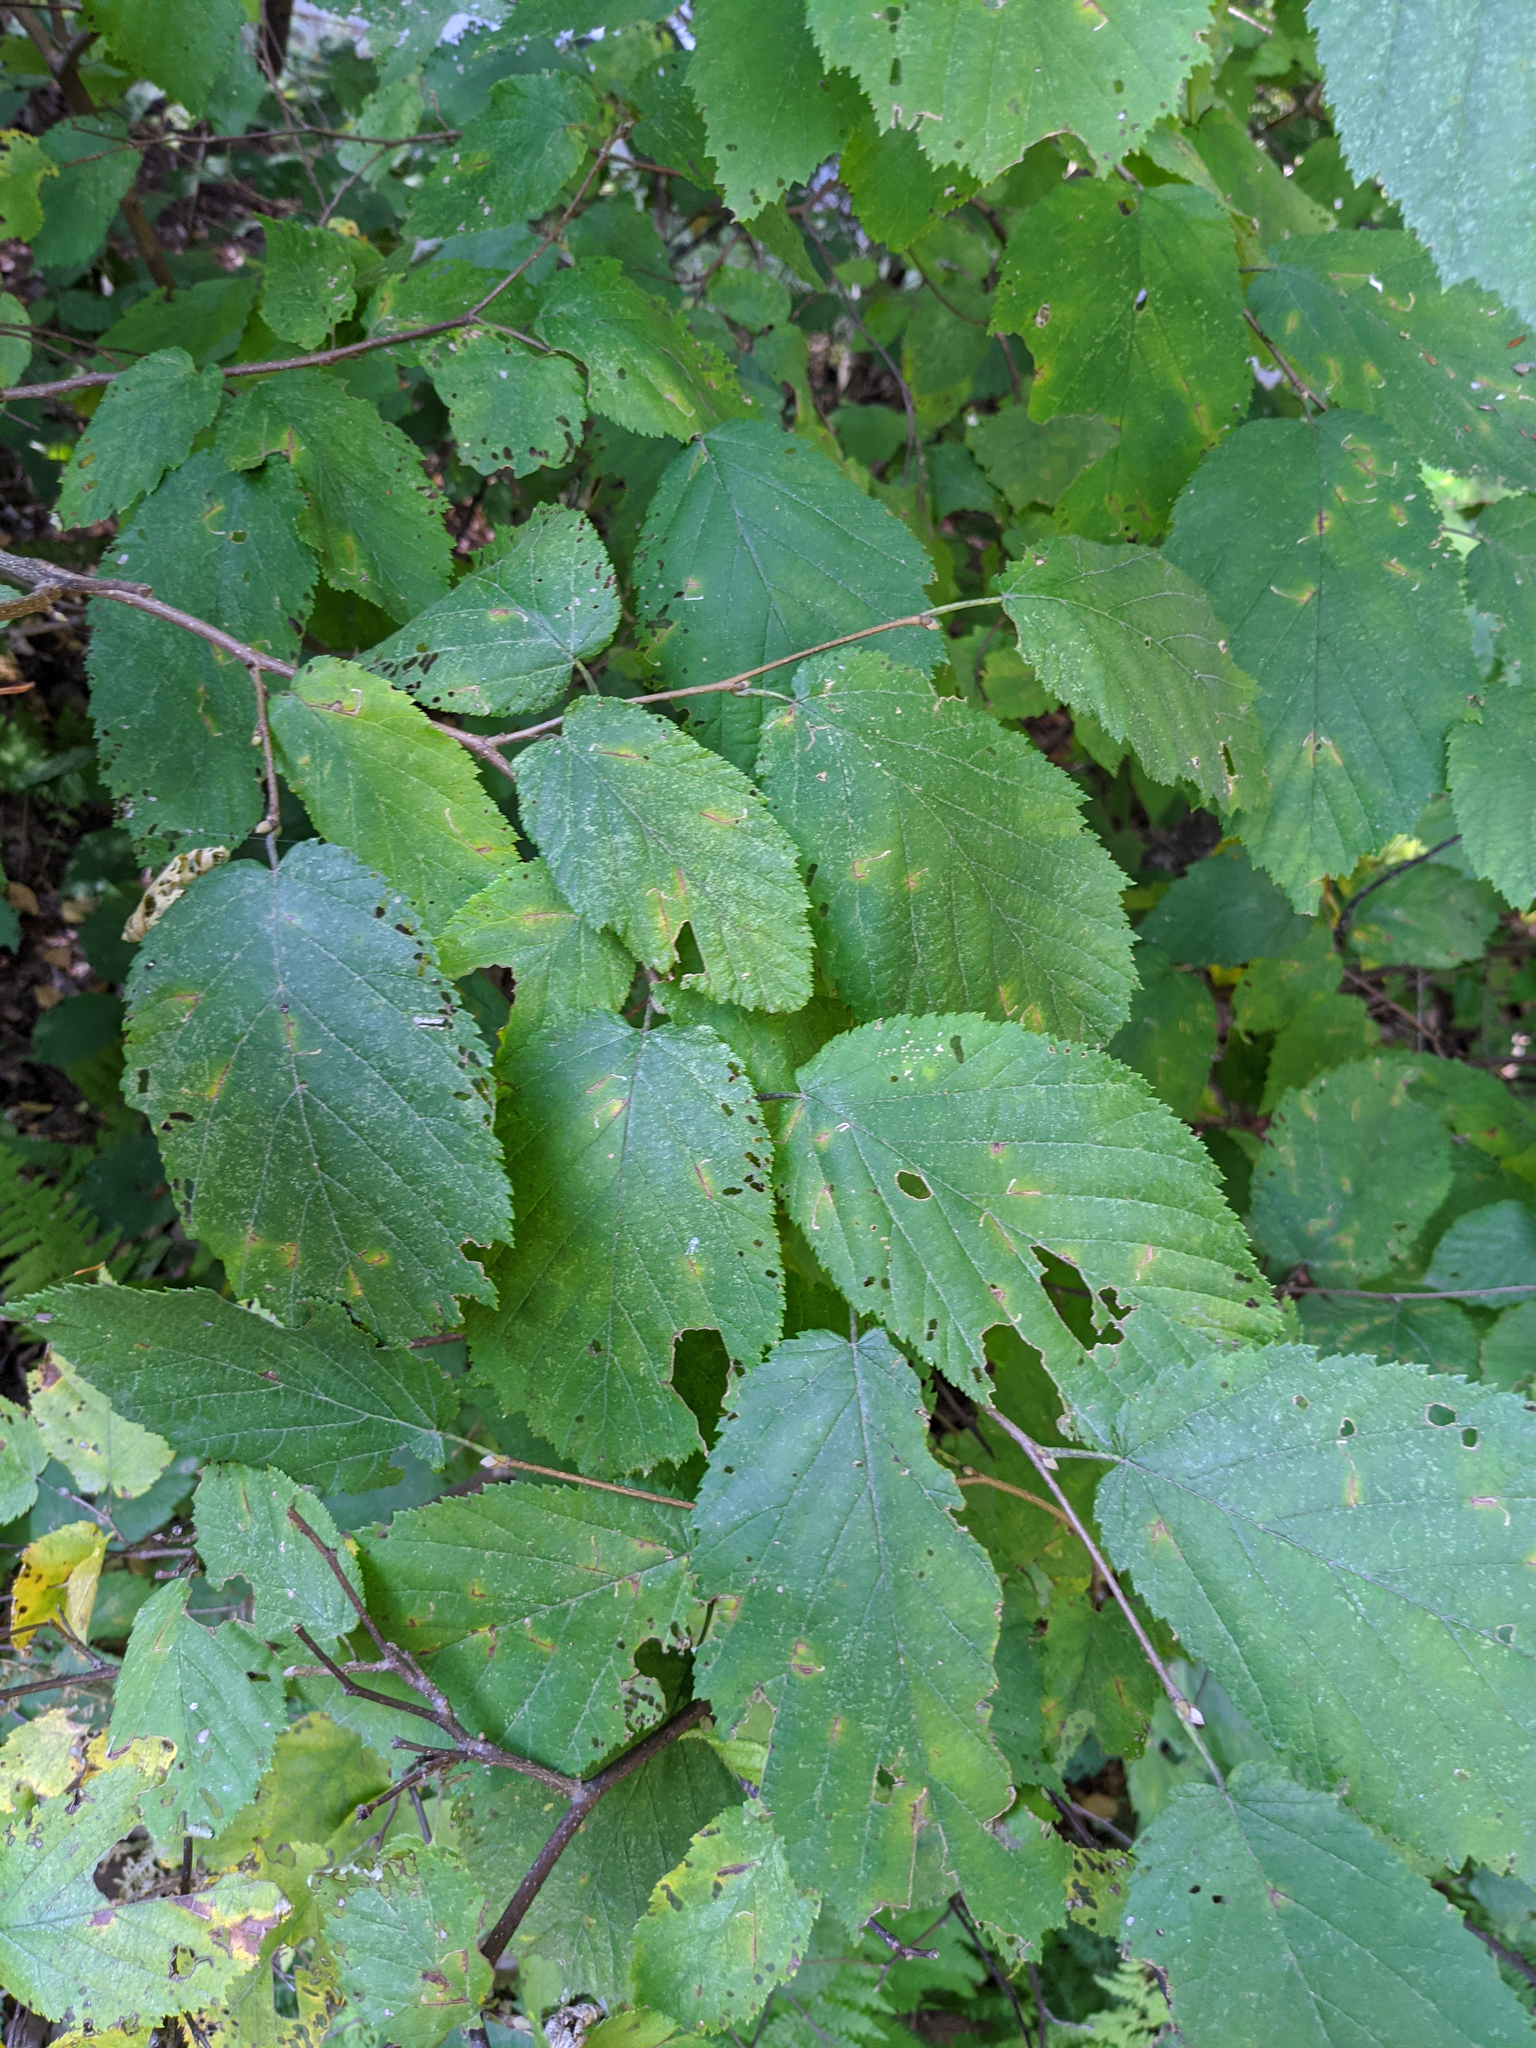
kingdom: Plantae
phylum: Tracheophyta
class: Magnoliopsida
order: Fagales
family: Betulaceae
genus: Corylus
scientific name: Corylus cornuta
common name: Beaked hazel
